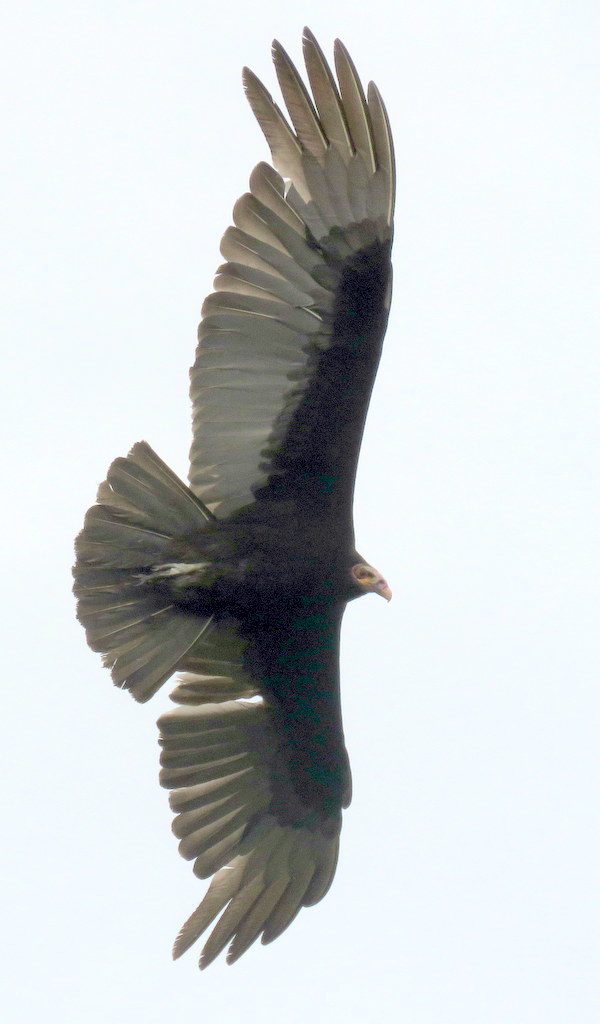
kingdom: Animalia
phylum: Chordata
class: Aves
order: Accipitriformes
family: Cathartidae
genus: Cathartes
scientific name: Cathartes burrovianus
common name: Lesser yellow-headed vulture
